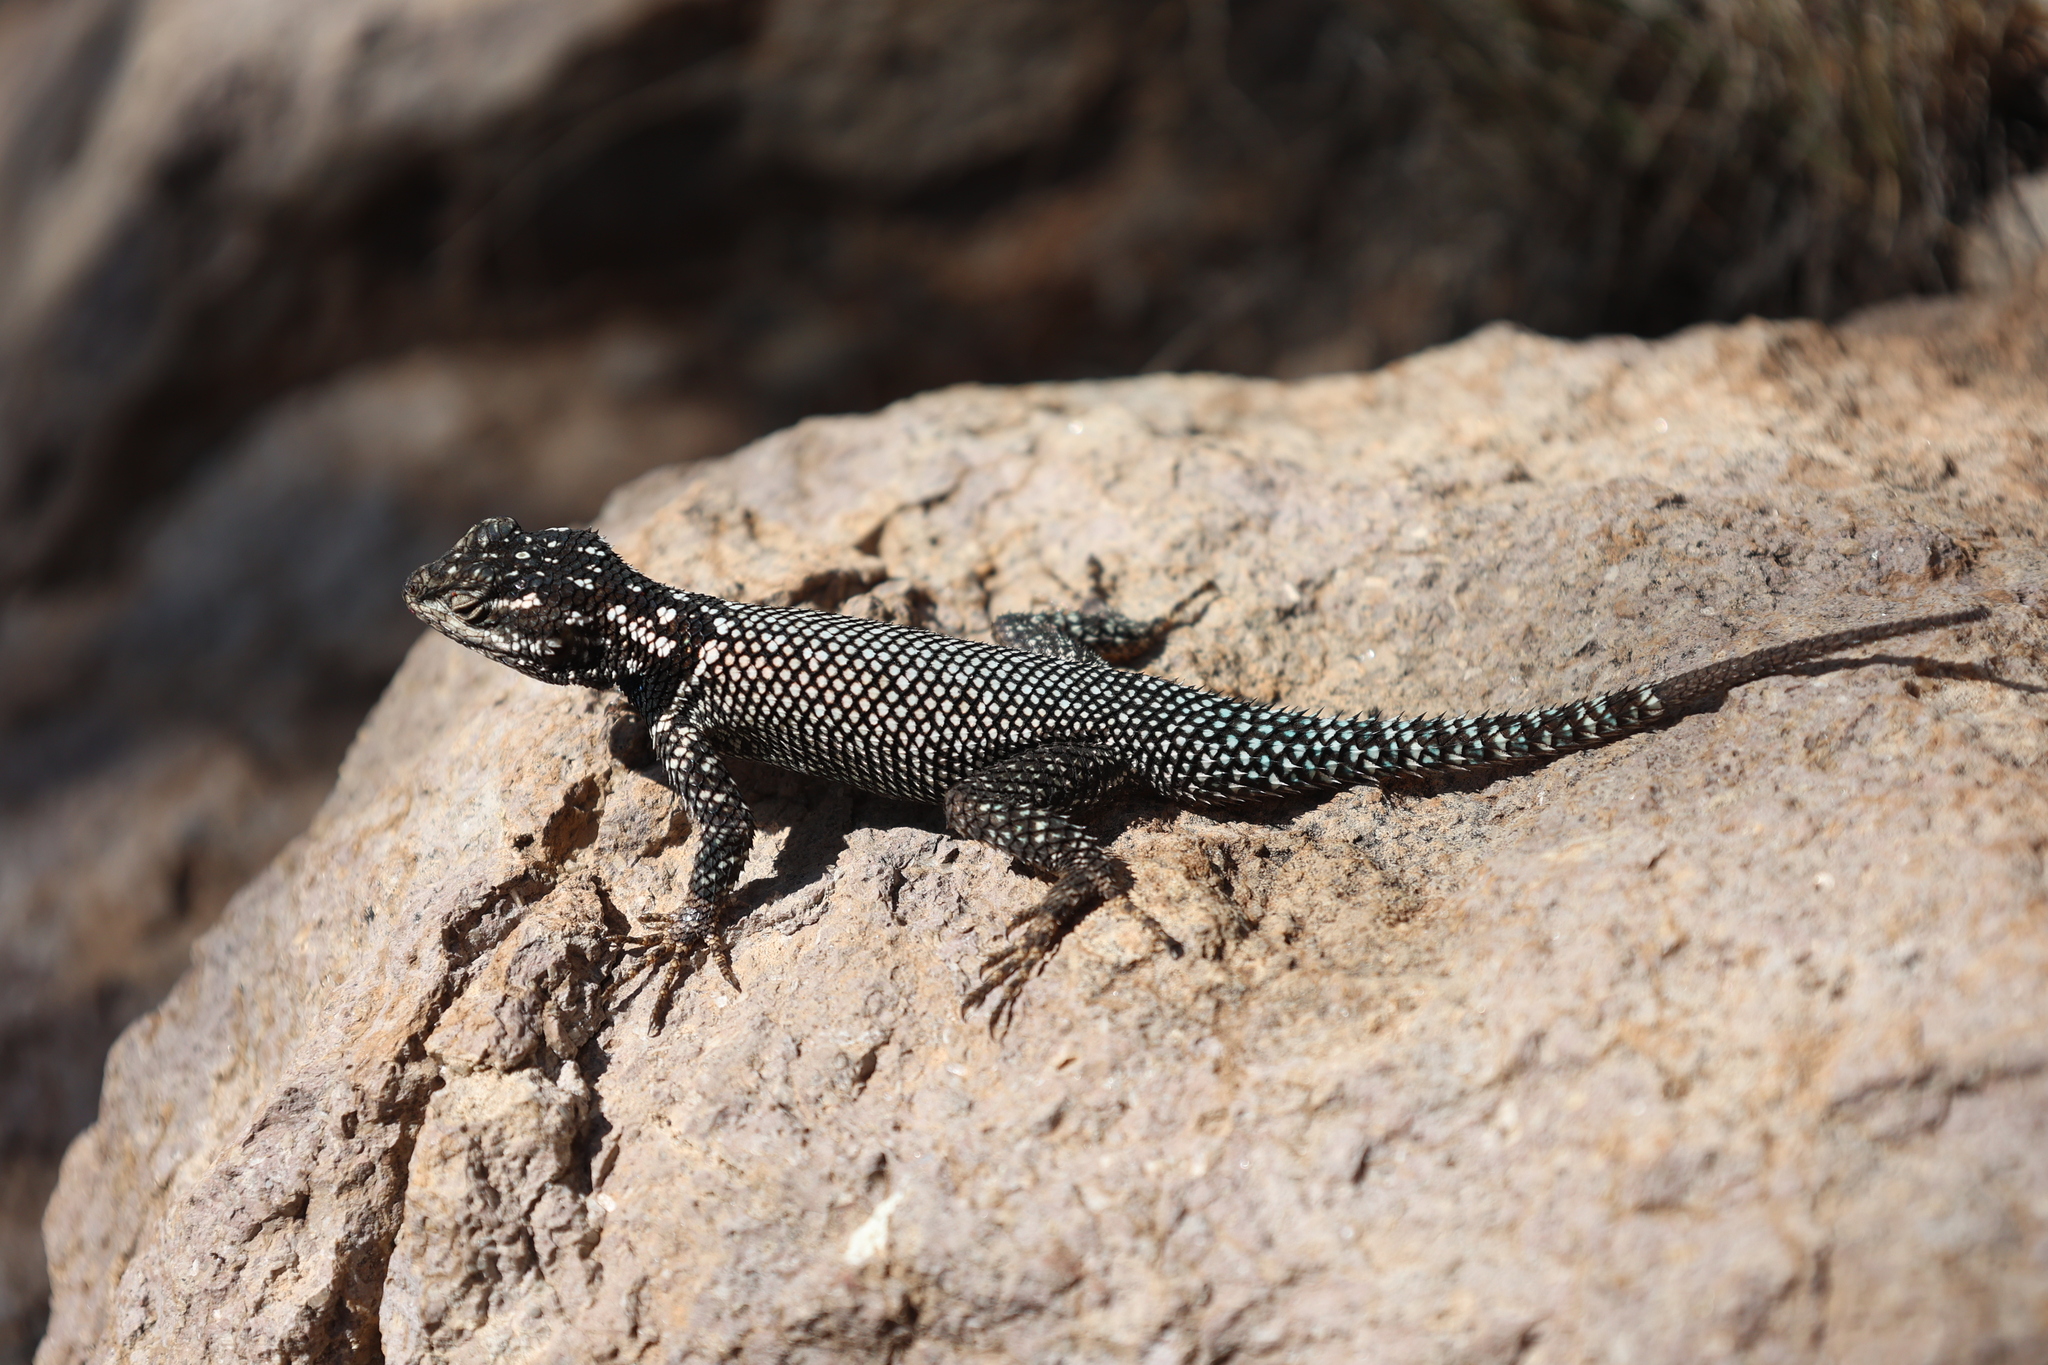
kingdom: Animalia
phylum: Chordata
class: Squamata
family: Phrynosomatidae
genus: Sceloporus
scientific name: Sceloporus jarrovii
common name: Yarrow's spiny lizard
